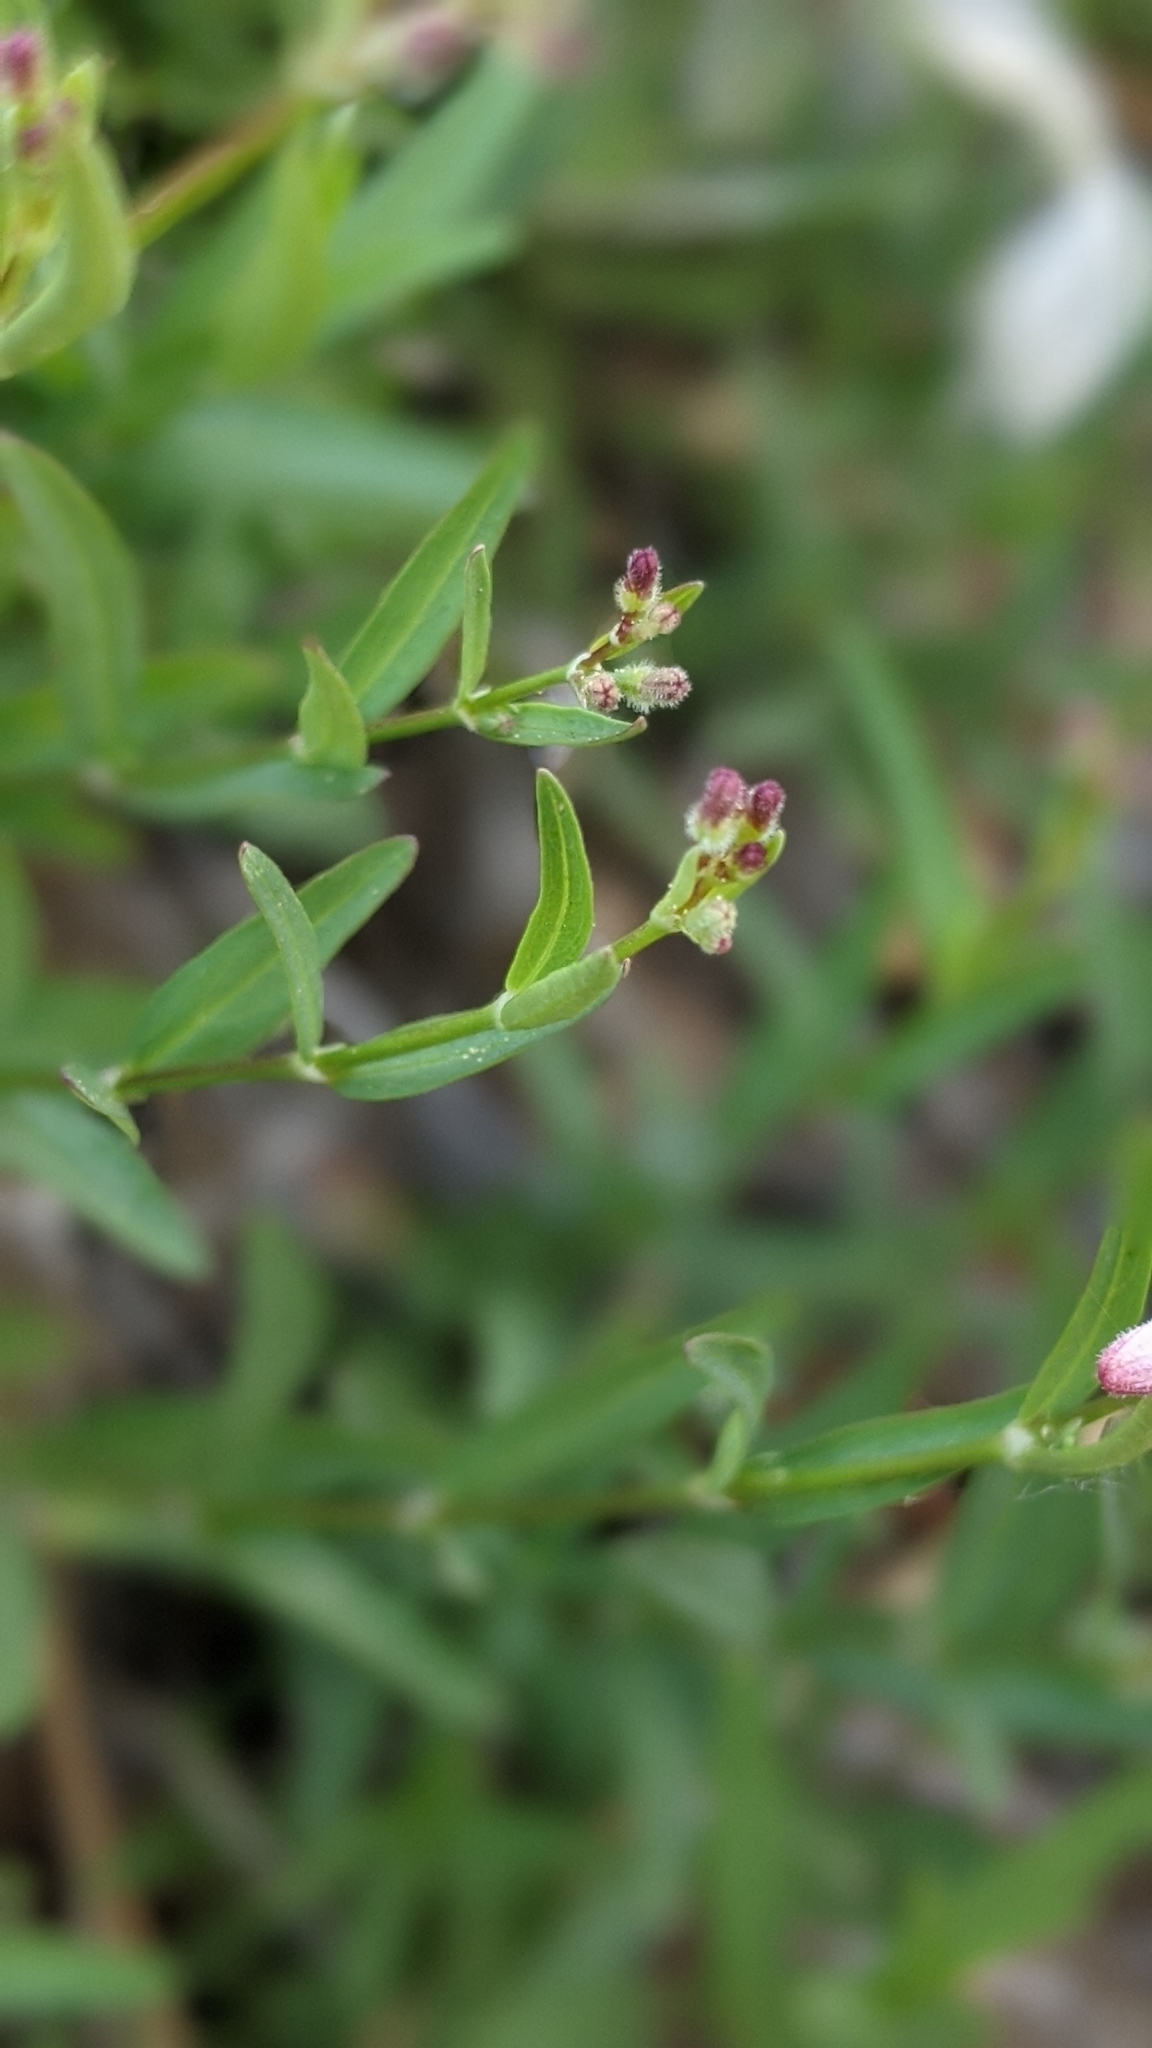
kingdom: Plantae
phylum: Tracheophyta
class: Magnoliopsida
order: Gentianales
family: Rubiaceae
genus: Kelloggia
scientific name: Kelloggia galioides
